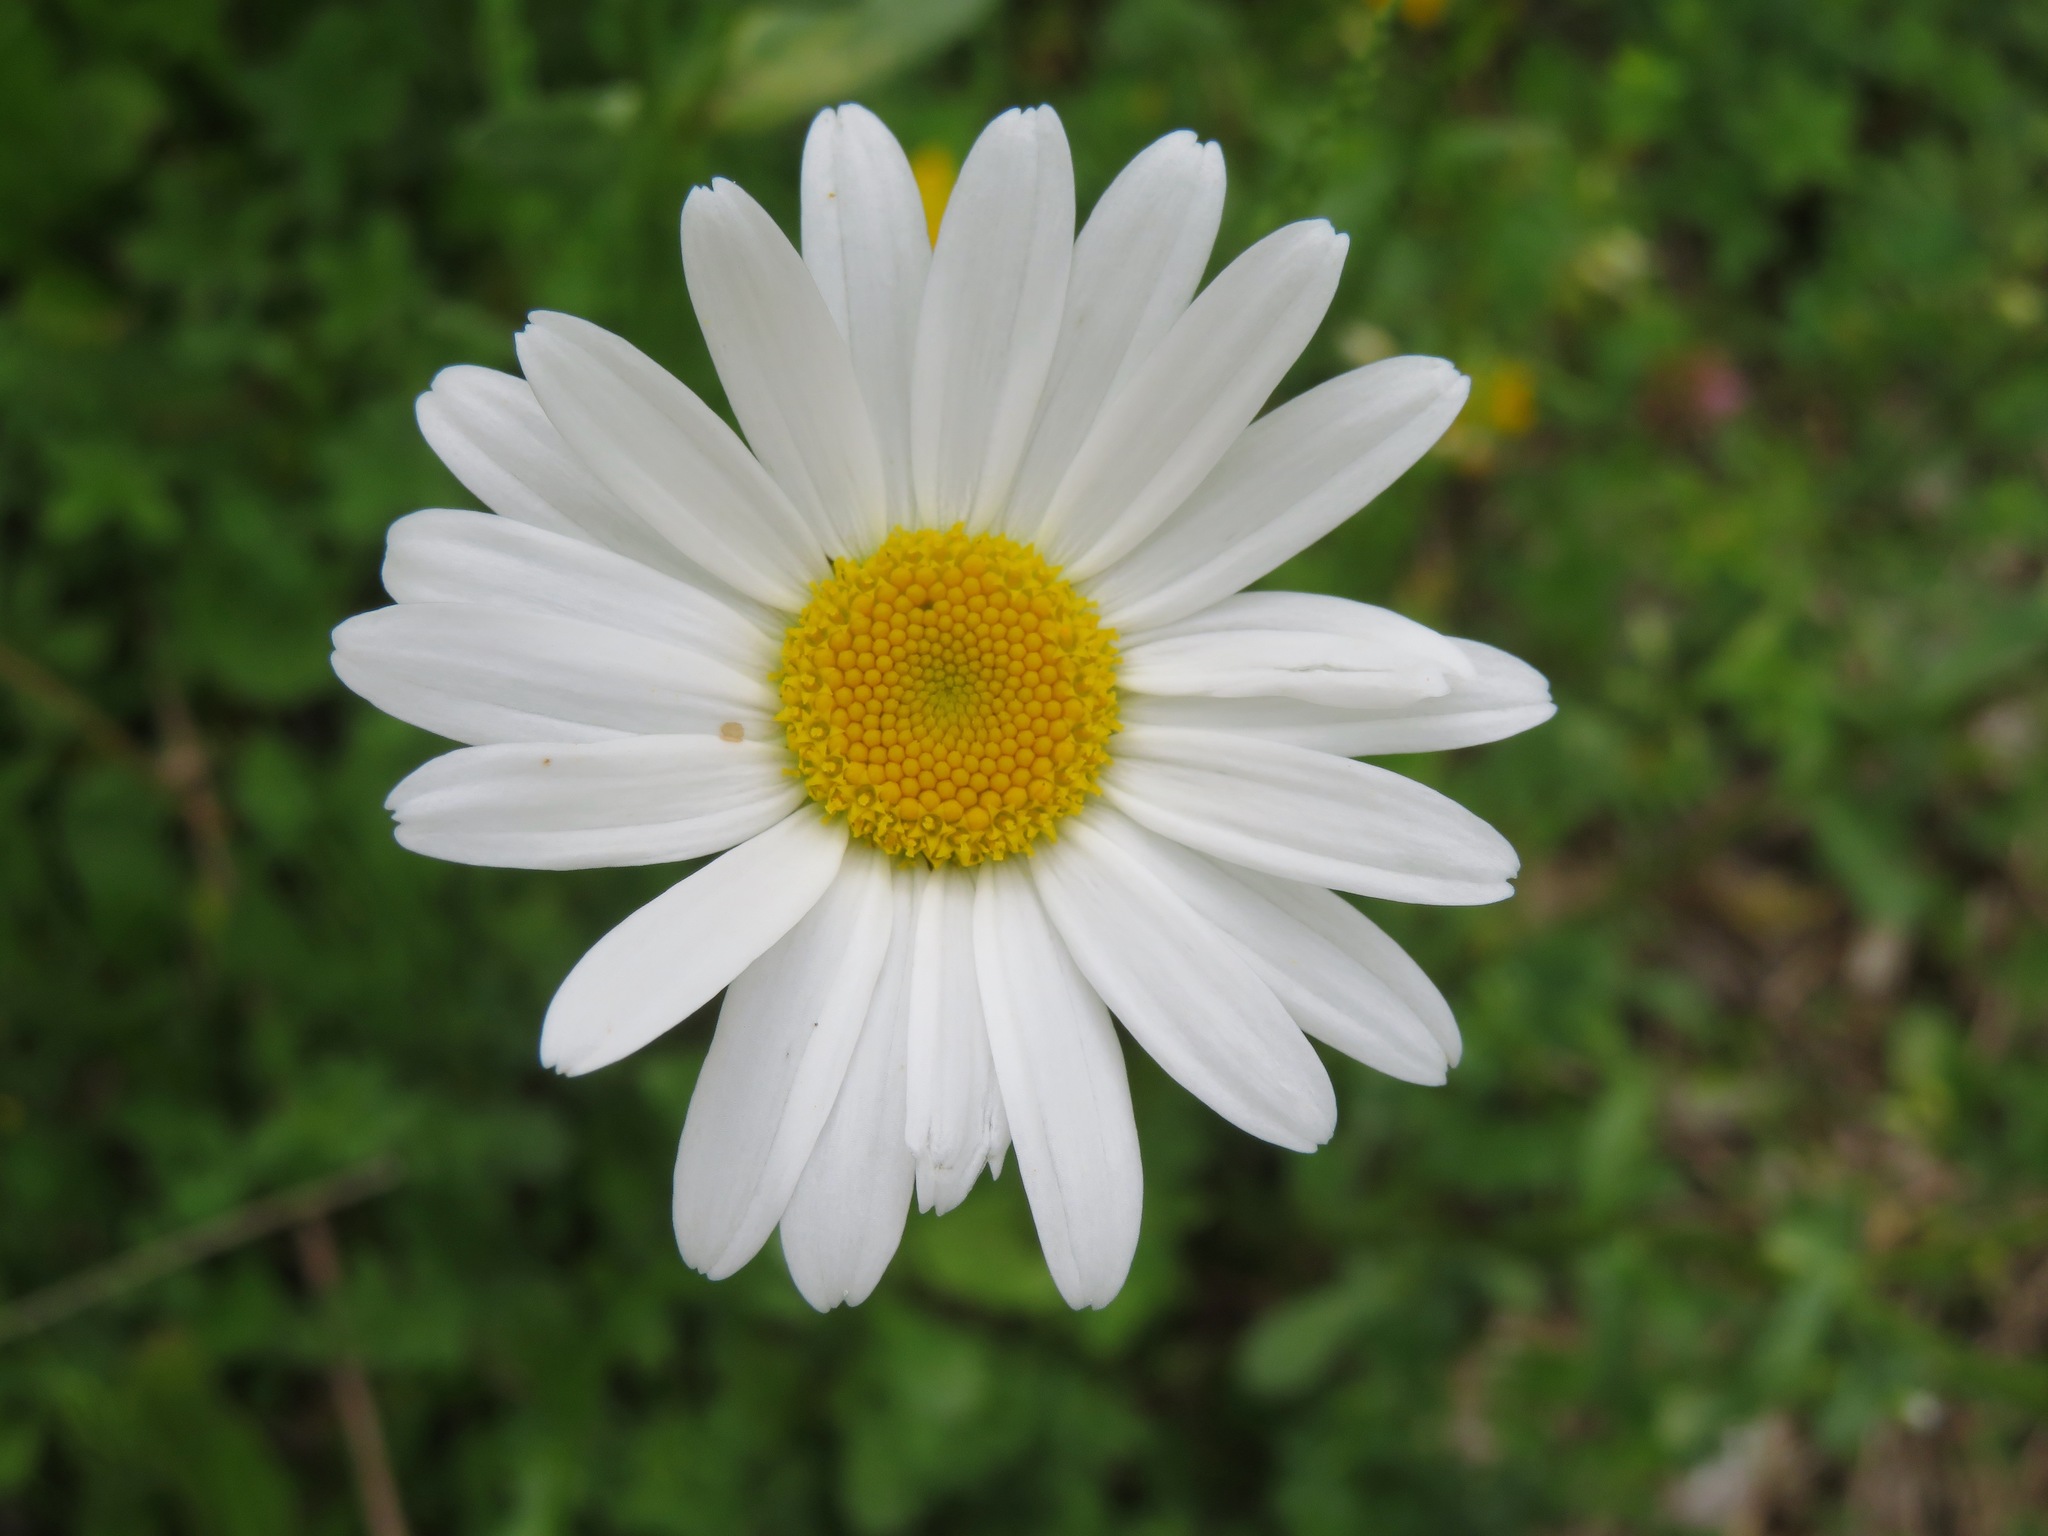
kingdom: Plantae
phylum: Tracheophyta
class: Magnoliopsida
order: Asterales
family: Asteraceae
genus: Leucanthemum
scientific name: Leucanthemum vulgare
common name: Oxeye daisy
